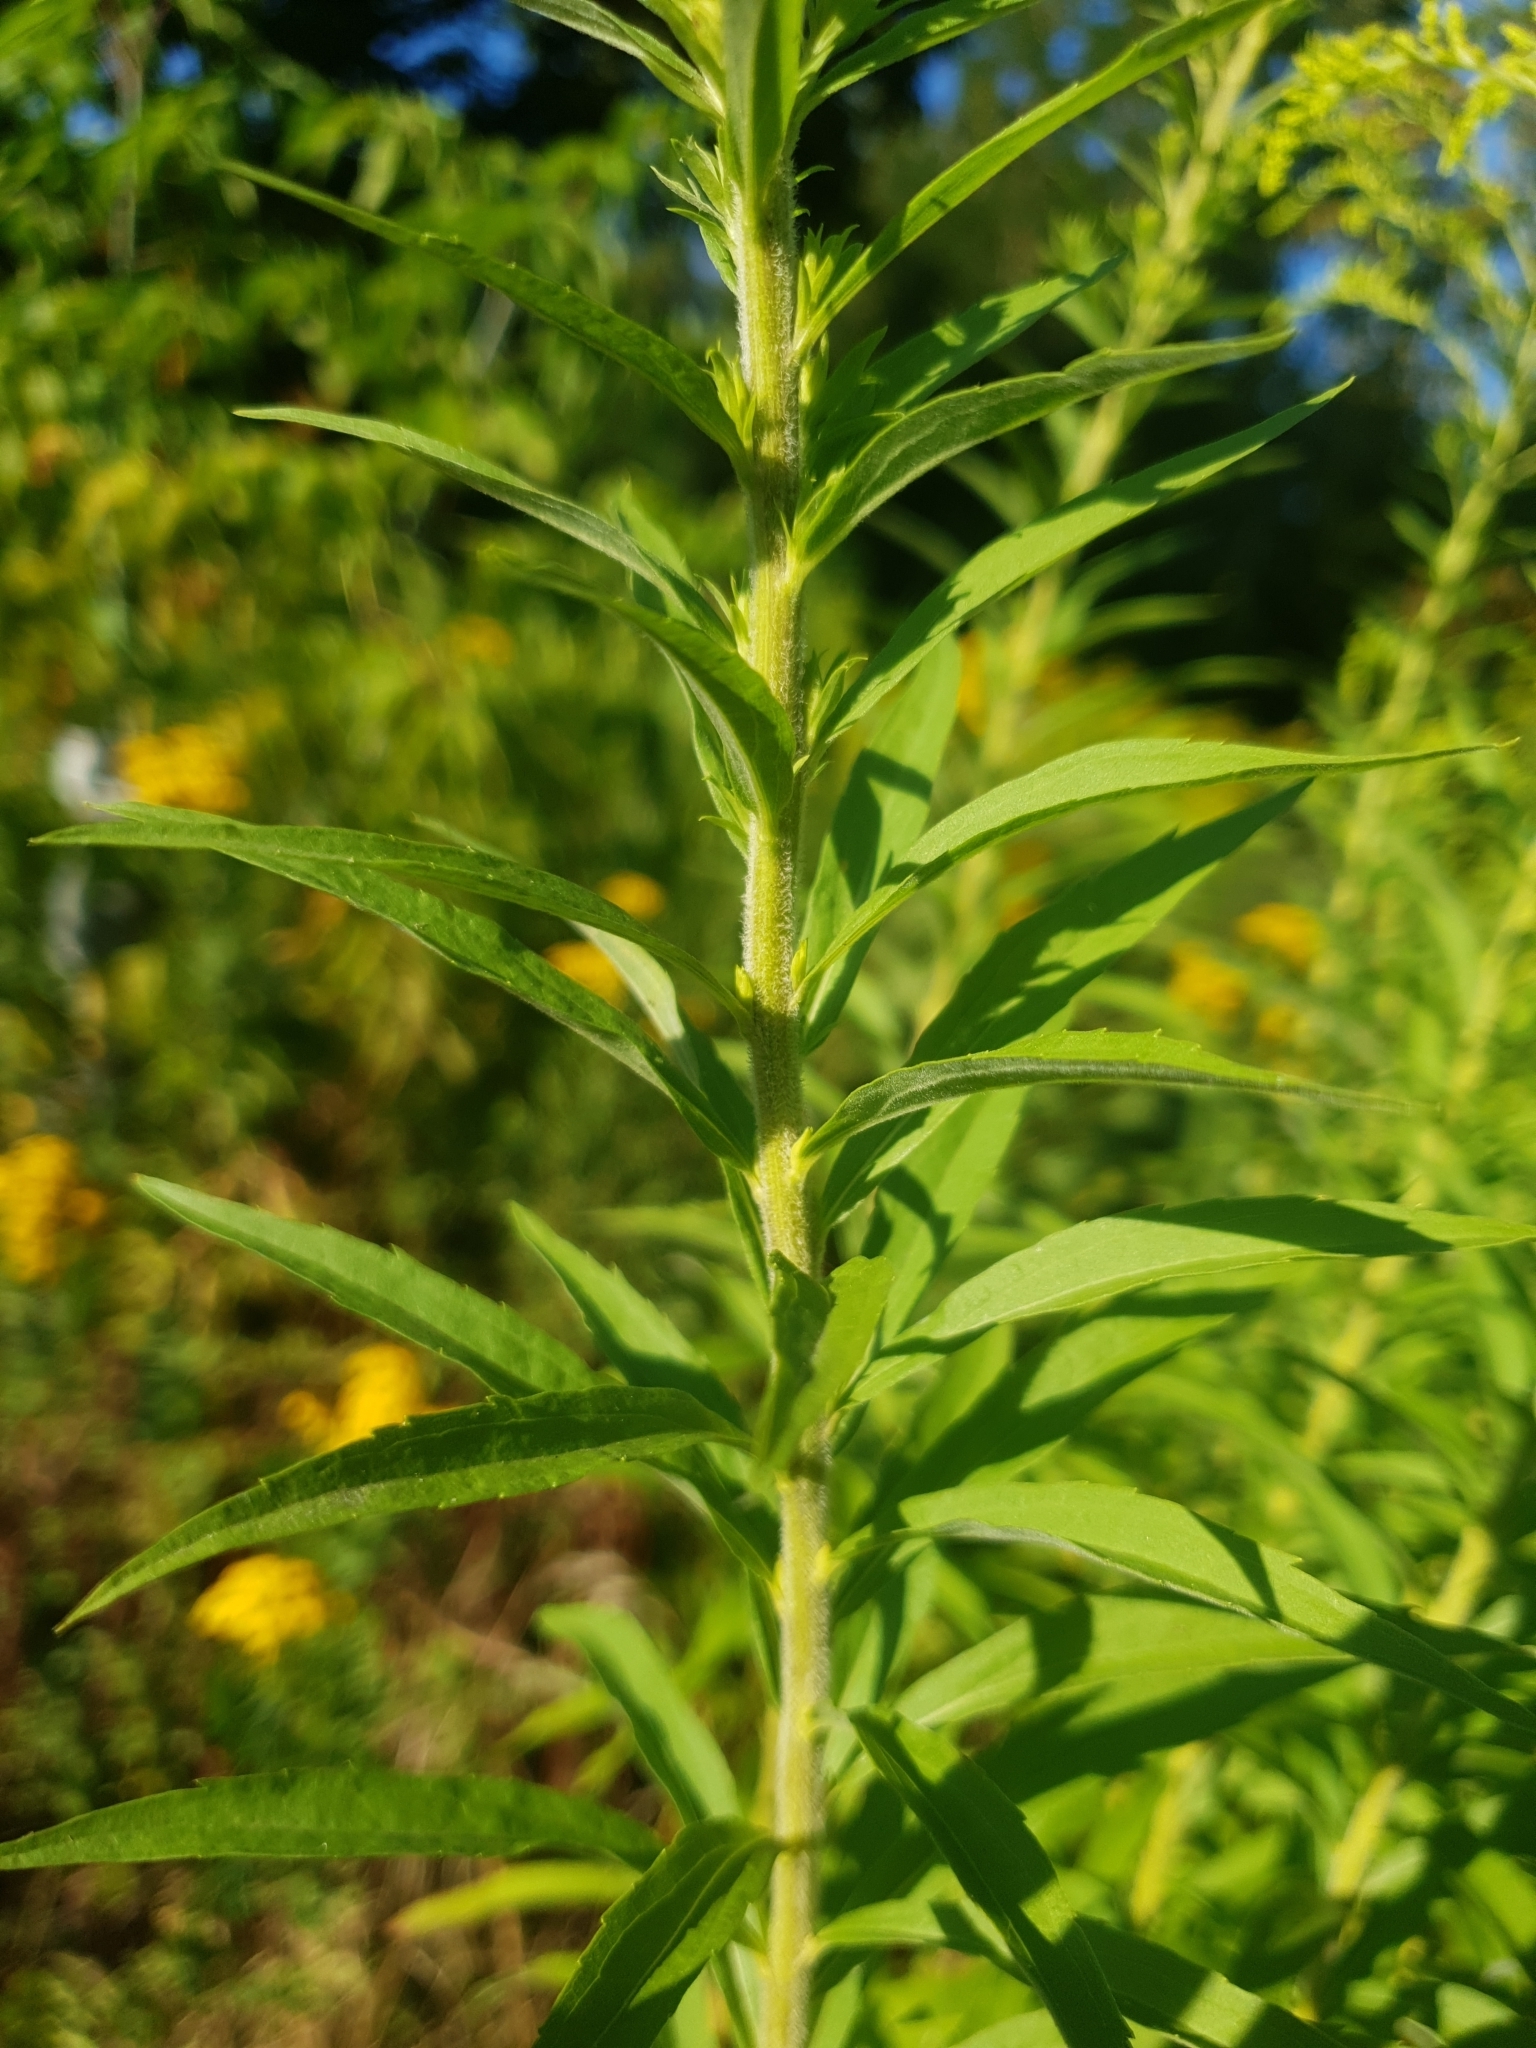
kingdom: Plantae
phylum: Tracheophyta
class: Magnoliopsida
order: Asterales
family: Asteraceae
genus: Solidago
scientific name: Solidago canadensis
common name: Canada goldenrod
